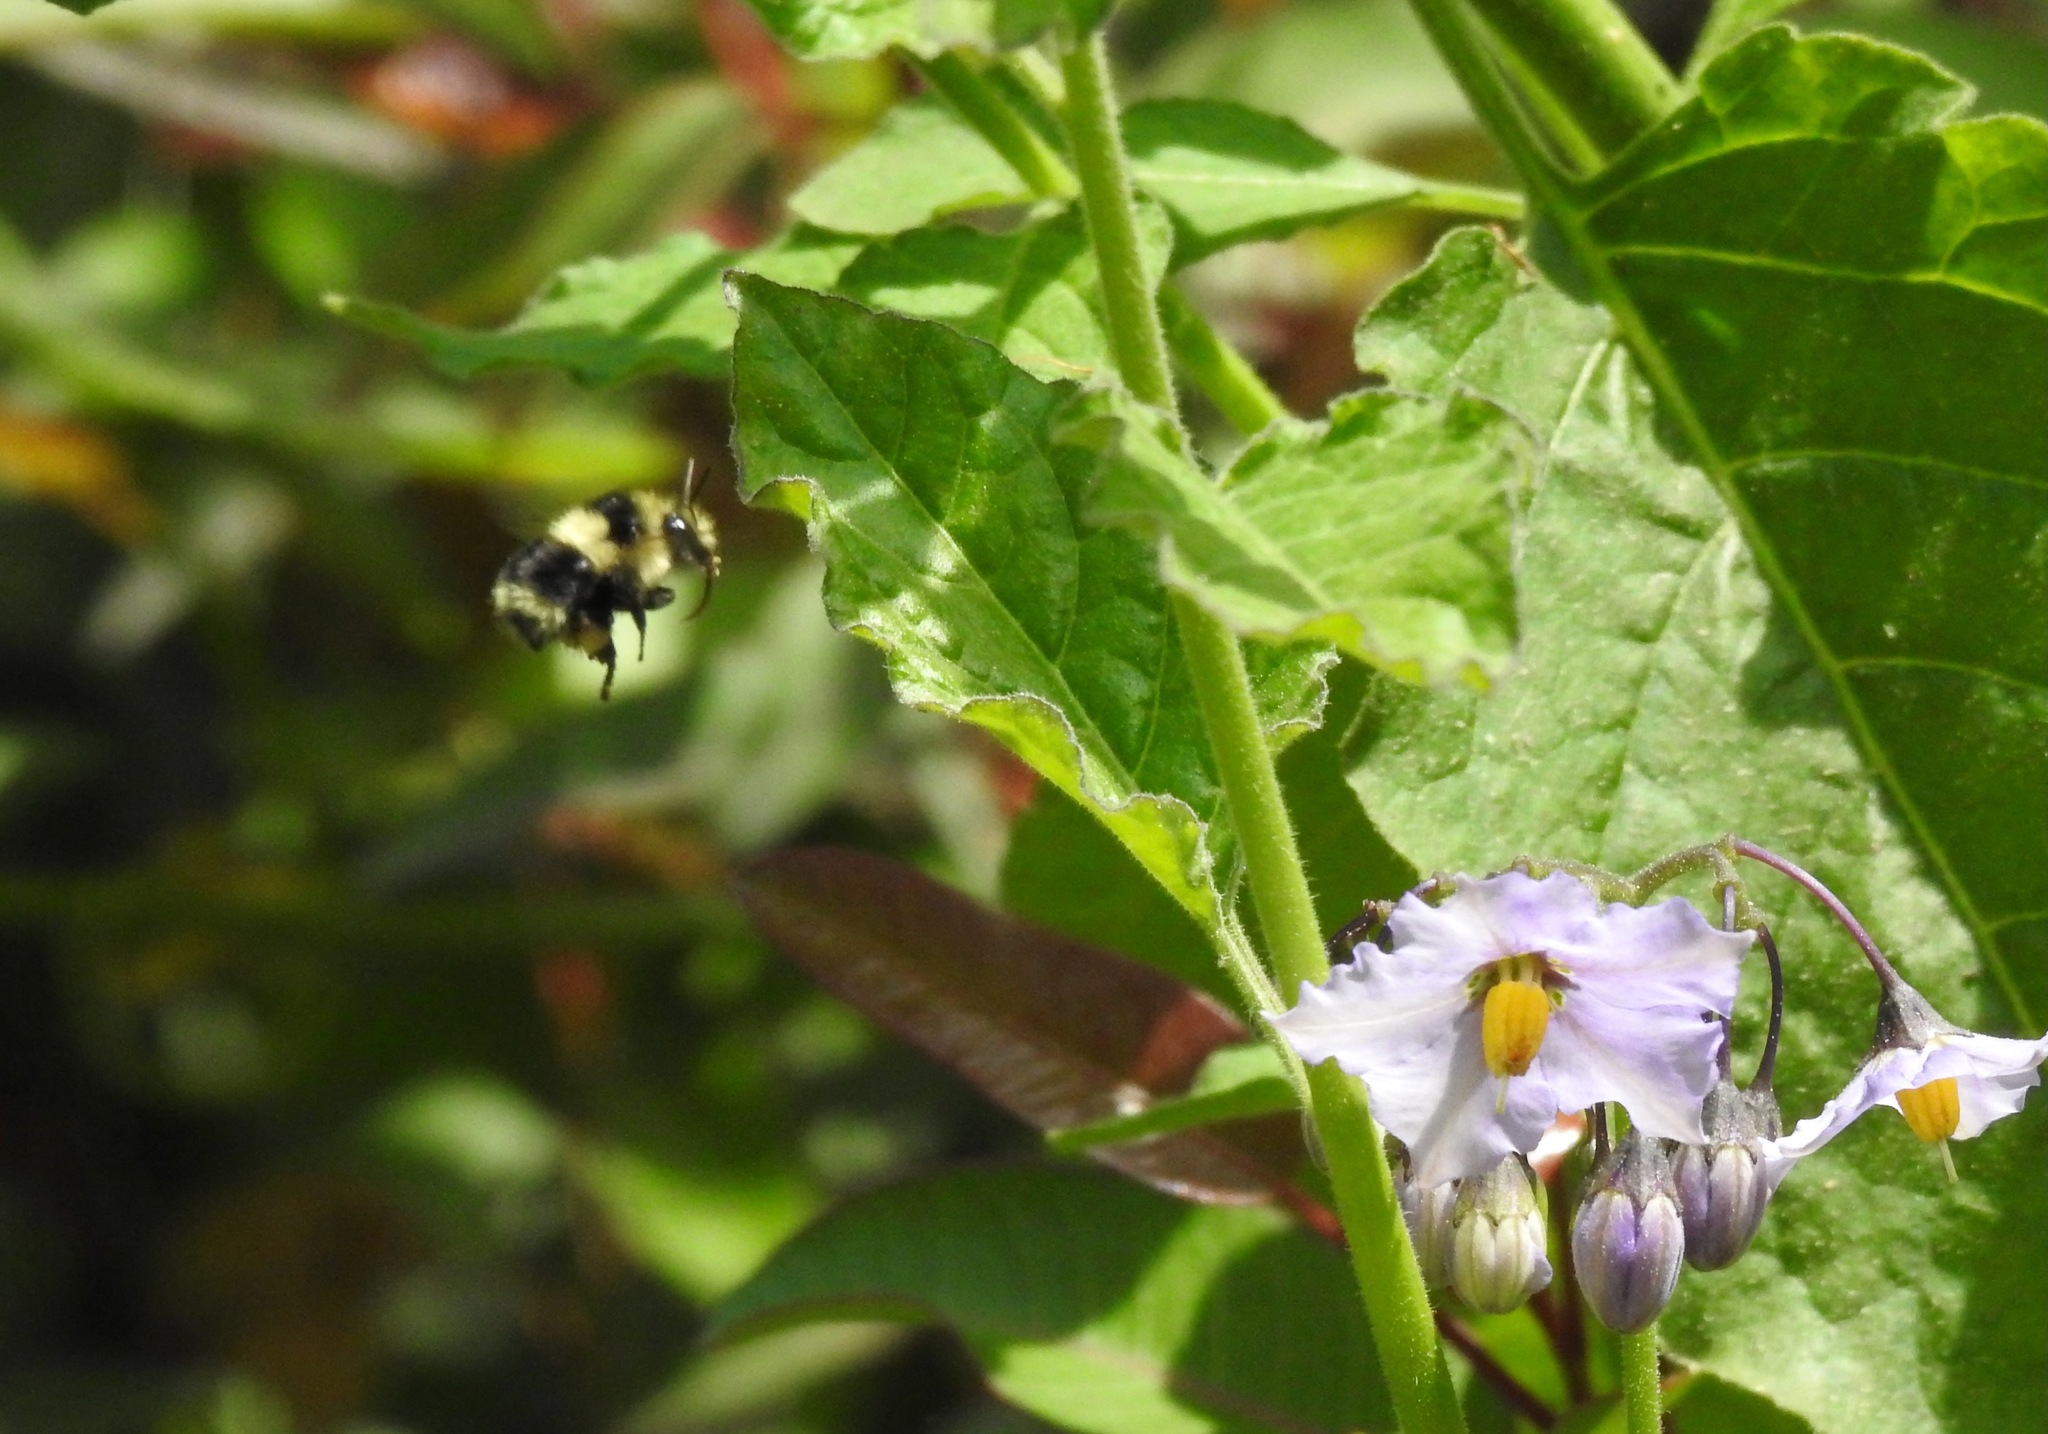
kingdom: Animalia
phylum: Arthropoda
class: Insecta
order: Hymenoptera
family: Apidae
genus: Bombus
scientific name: Bombus melanopygus
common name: Black tail bumble bee
